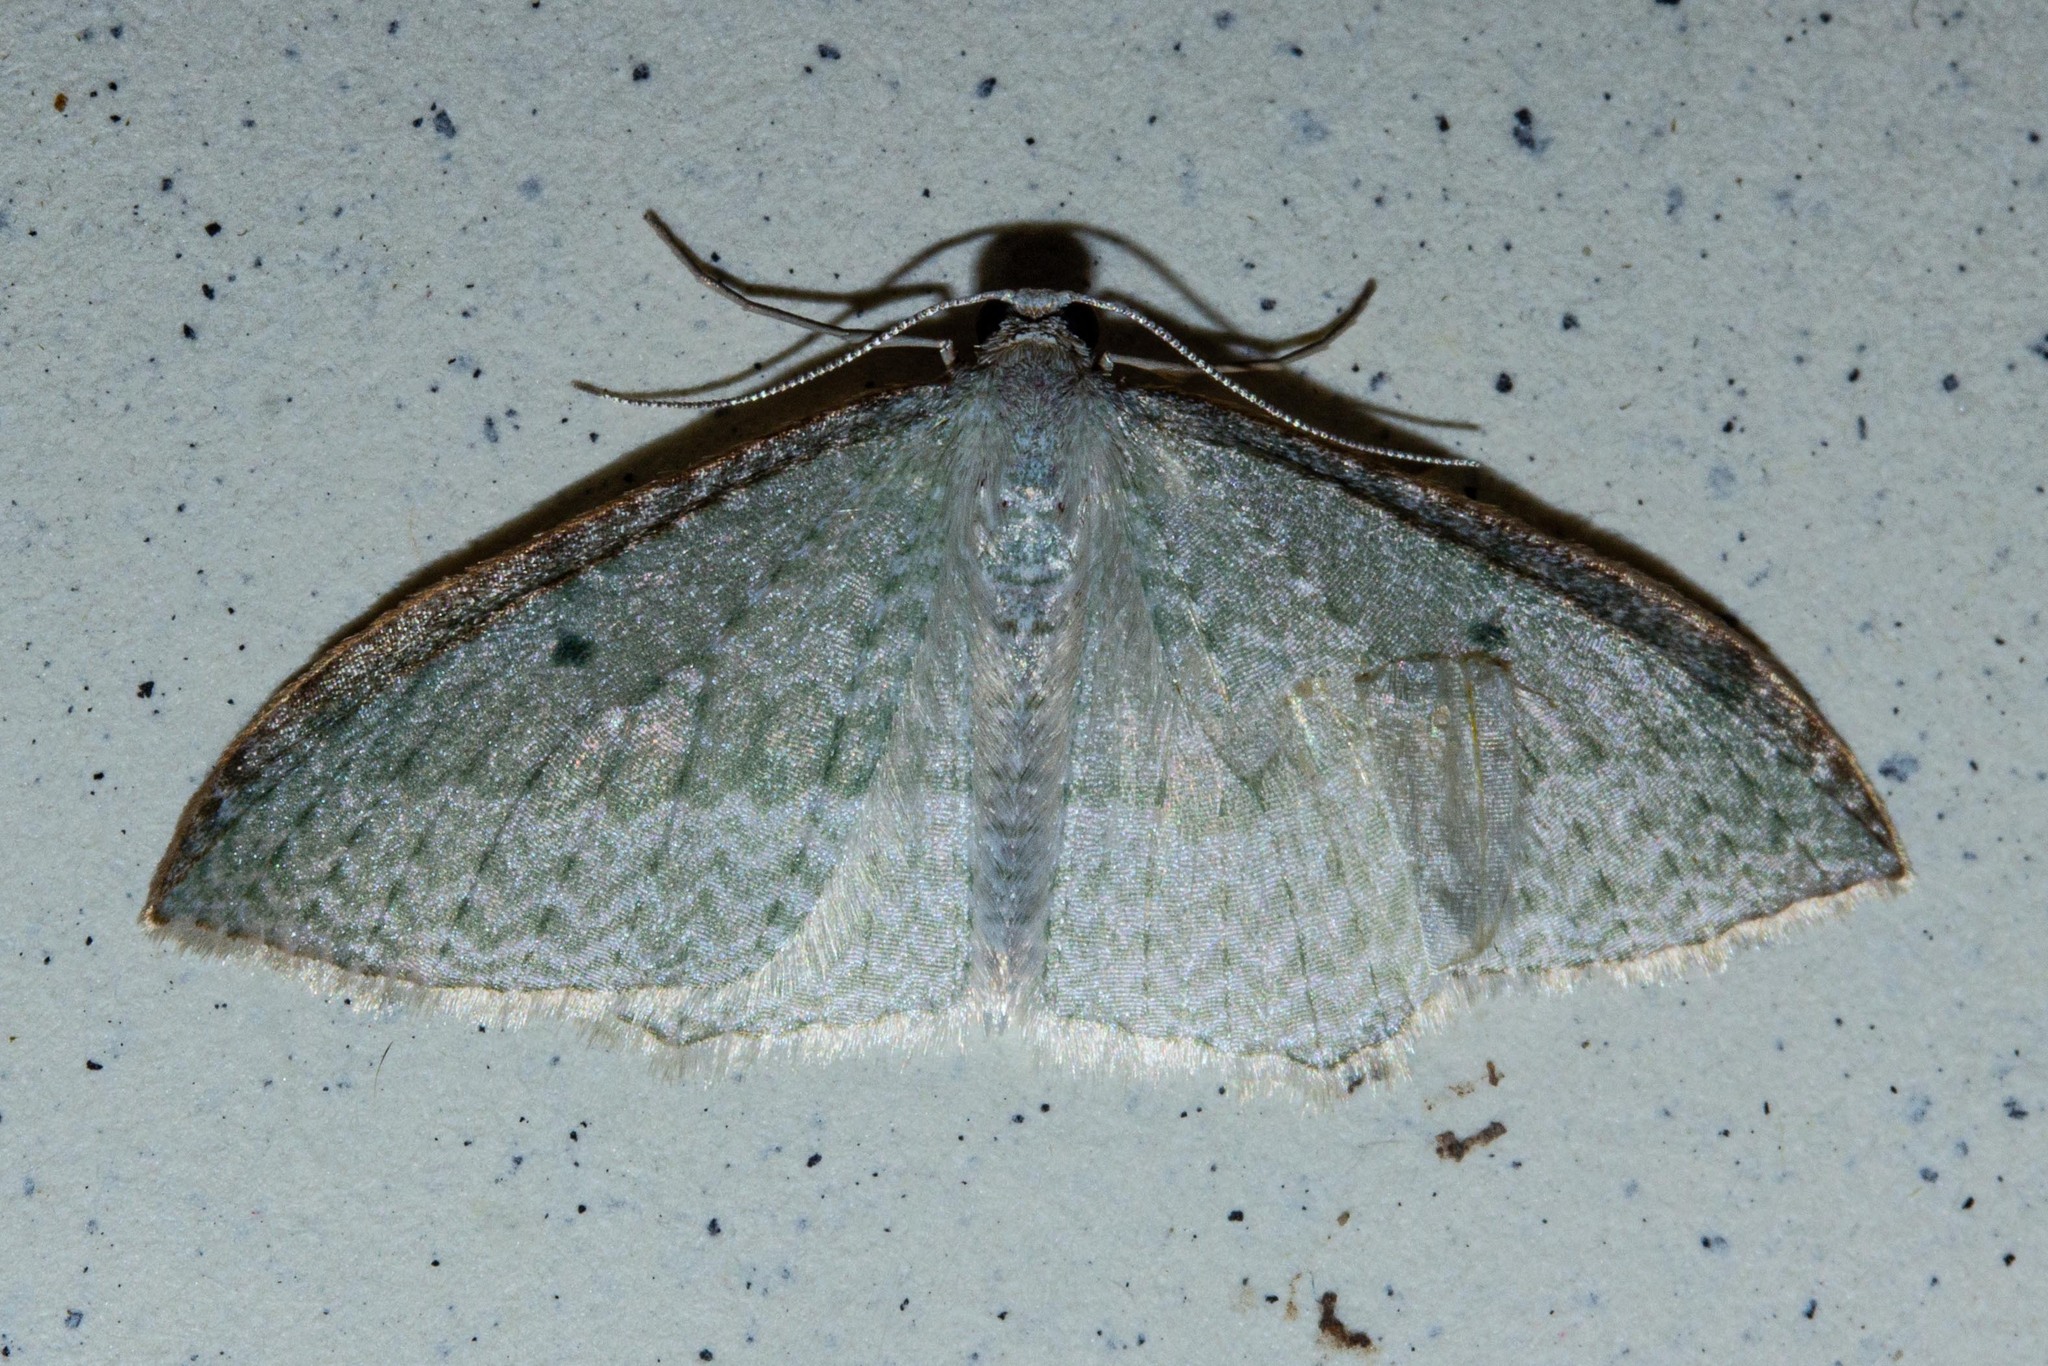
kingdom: Animalia
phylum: Arthropoda
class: Insecta
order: Lepidoptera
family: Geometridae
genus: Poecilasthena
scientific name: Poecilasthena pulchraria
